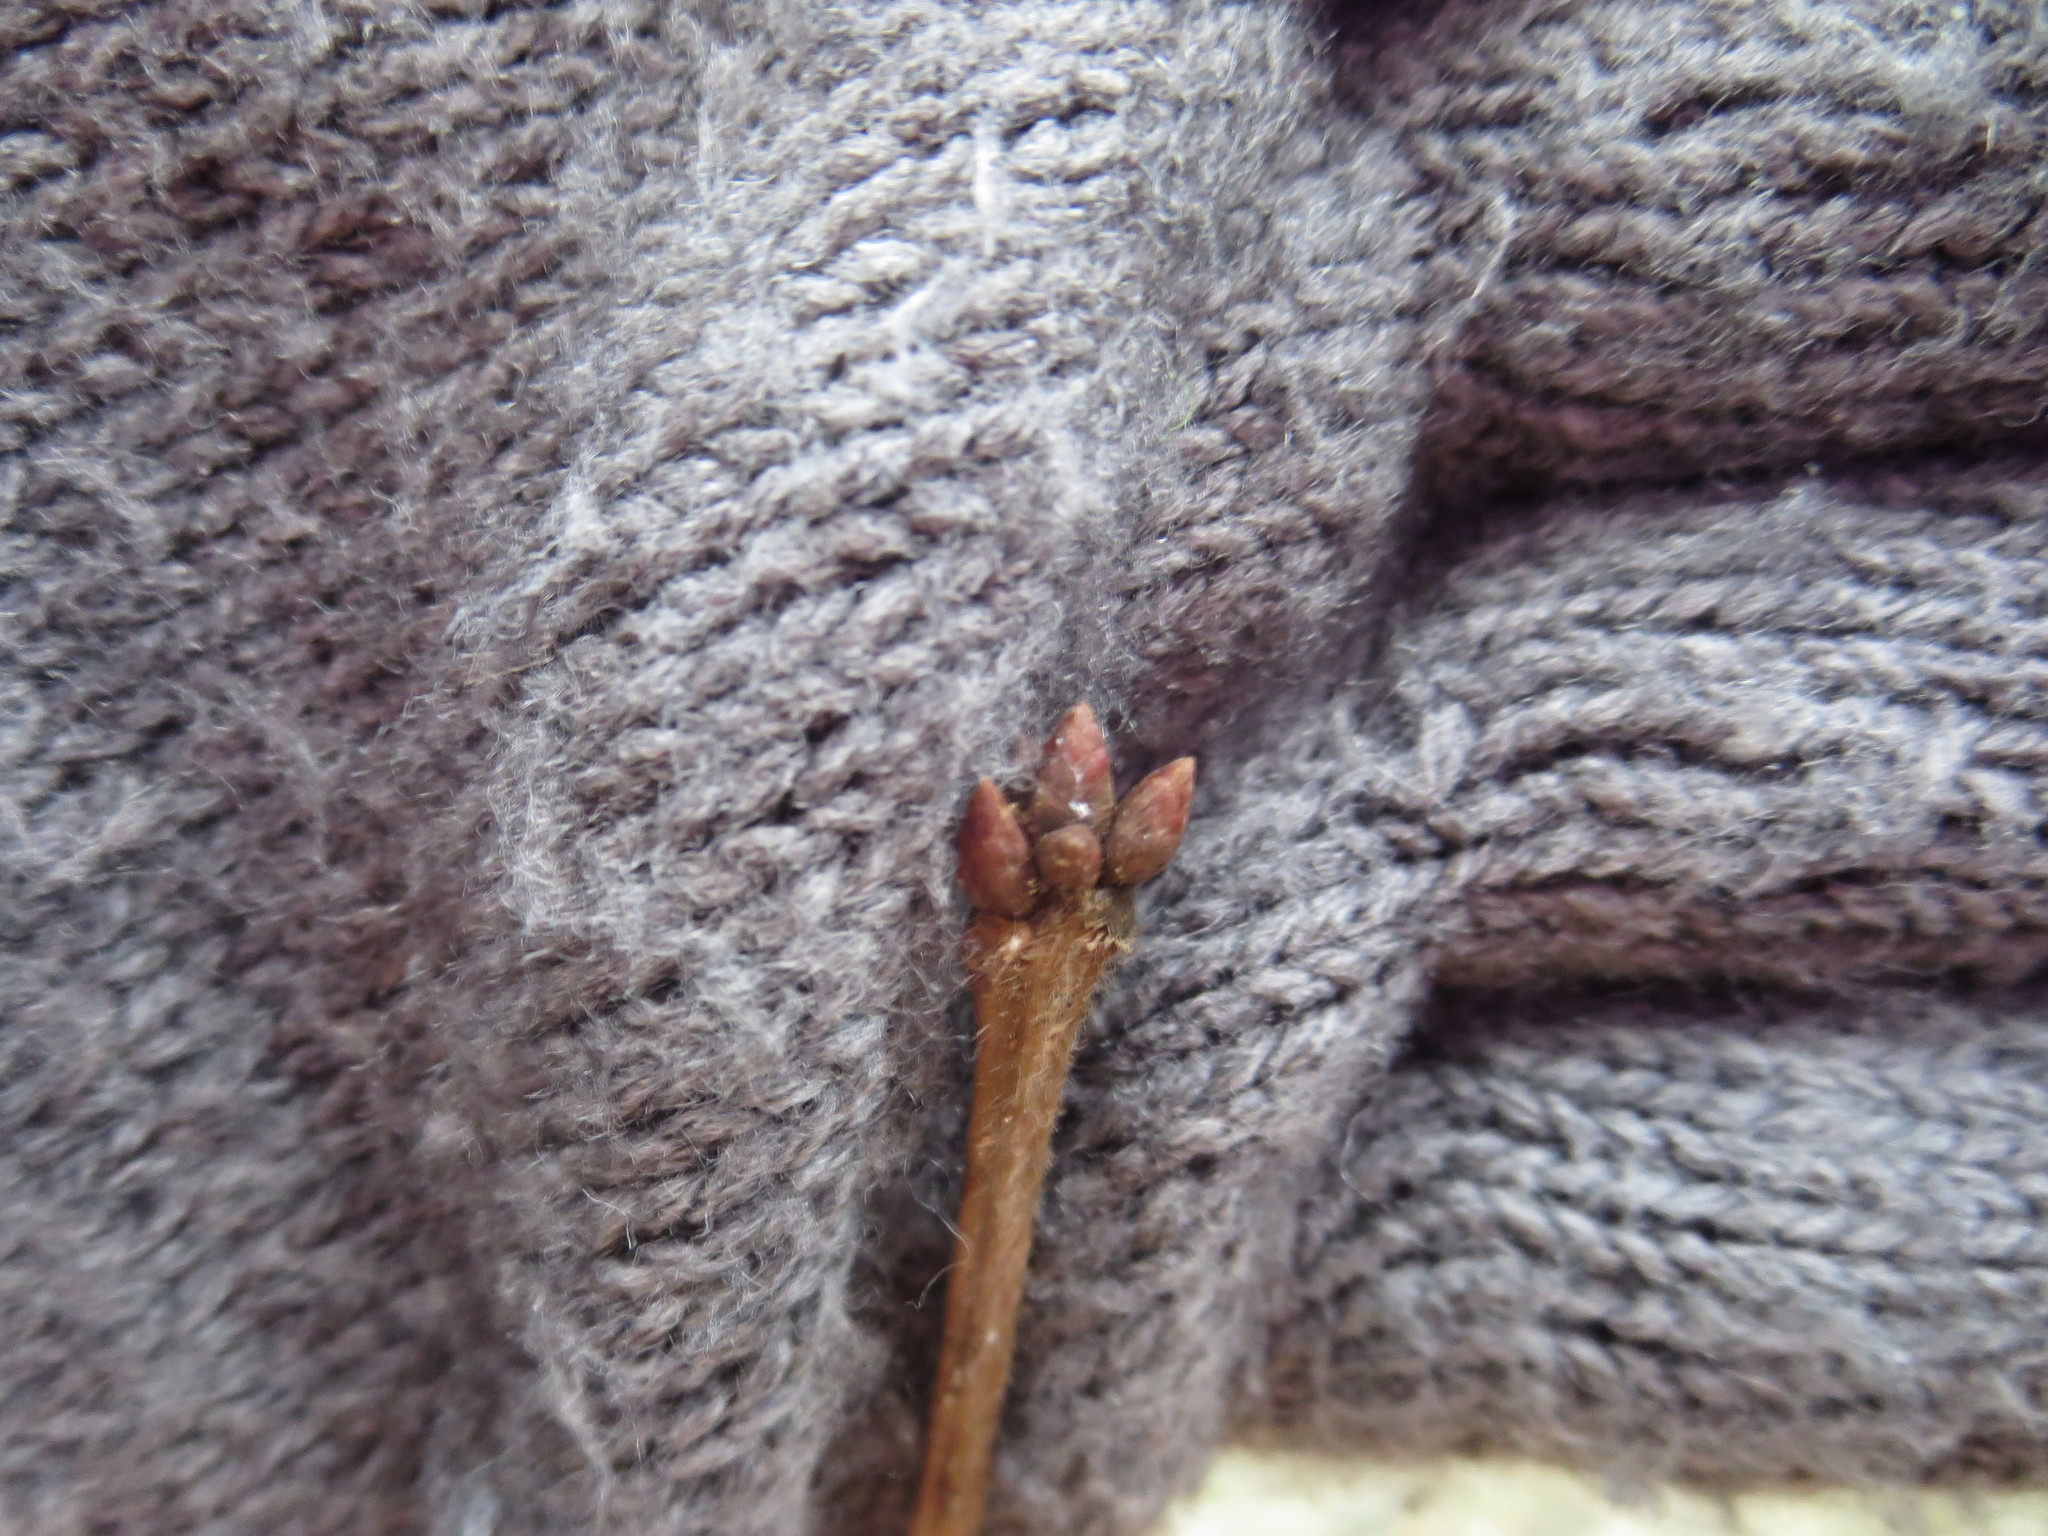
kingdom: Plantae
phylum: Tracheophyta
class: Magnoliopsida
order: Fagales
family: Fagaceae
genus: Quercus
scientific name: Quercus michauxii
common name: Swamp chestnut oak
